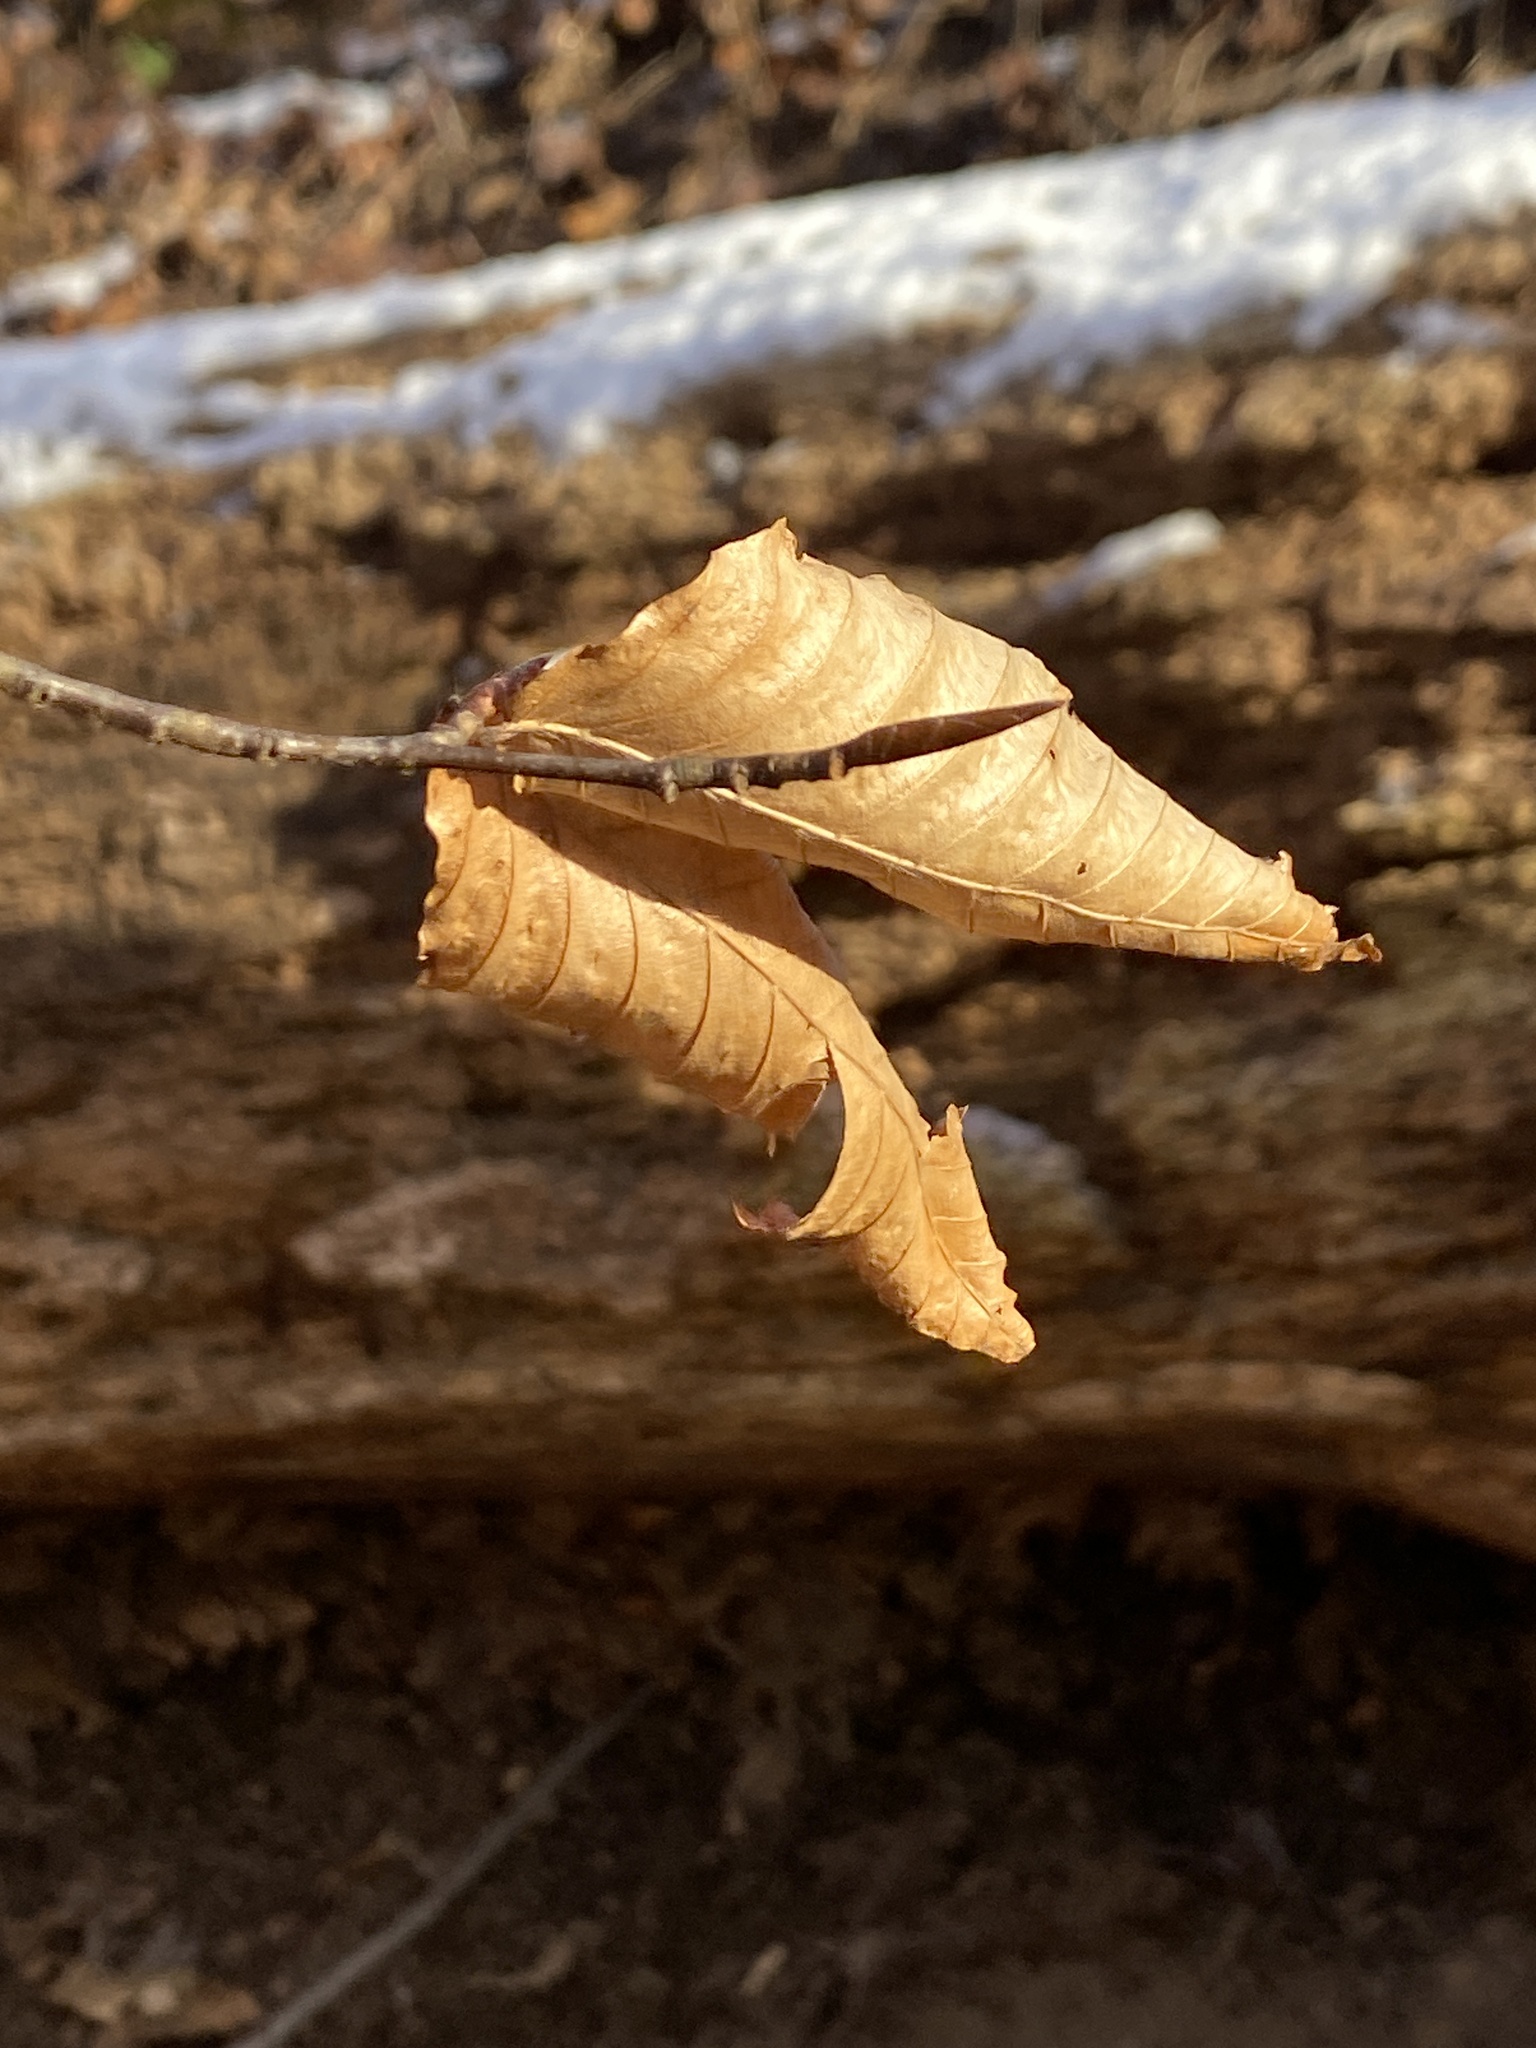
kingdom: Plantae
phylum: Tracheophyta
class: Magnoliopsida
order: Fagales
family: Fagaceae
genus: Fagus
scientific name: Fagus grandifolia
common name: American beech
